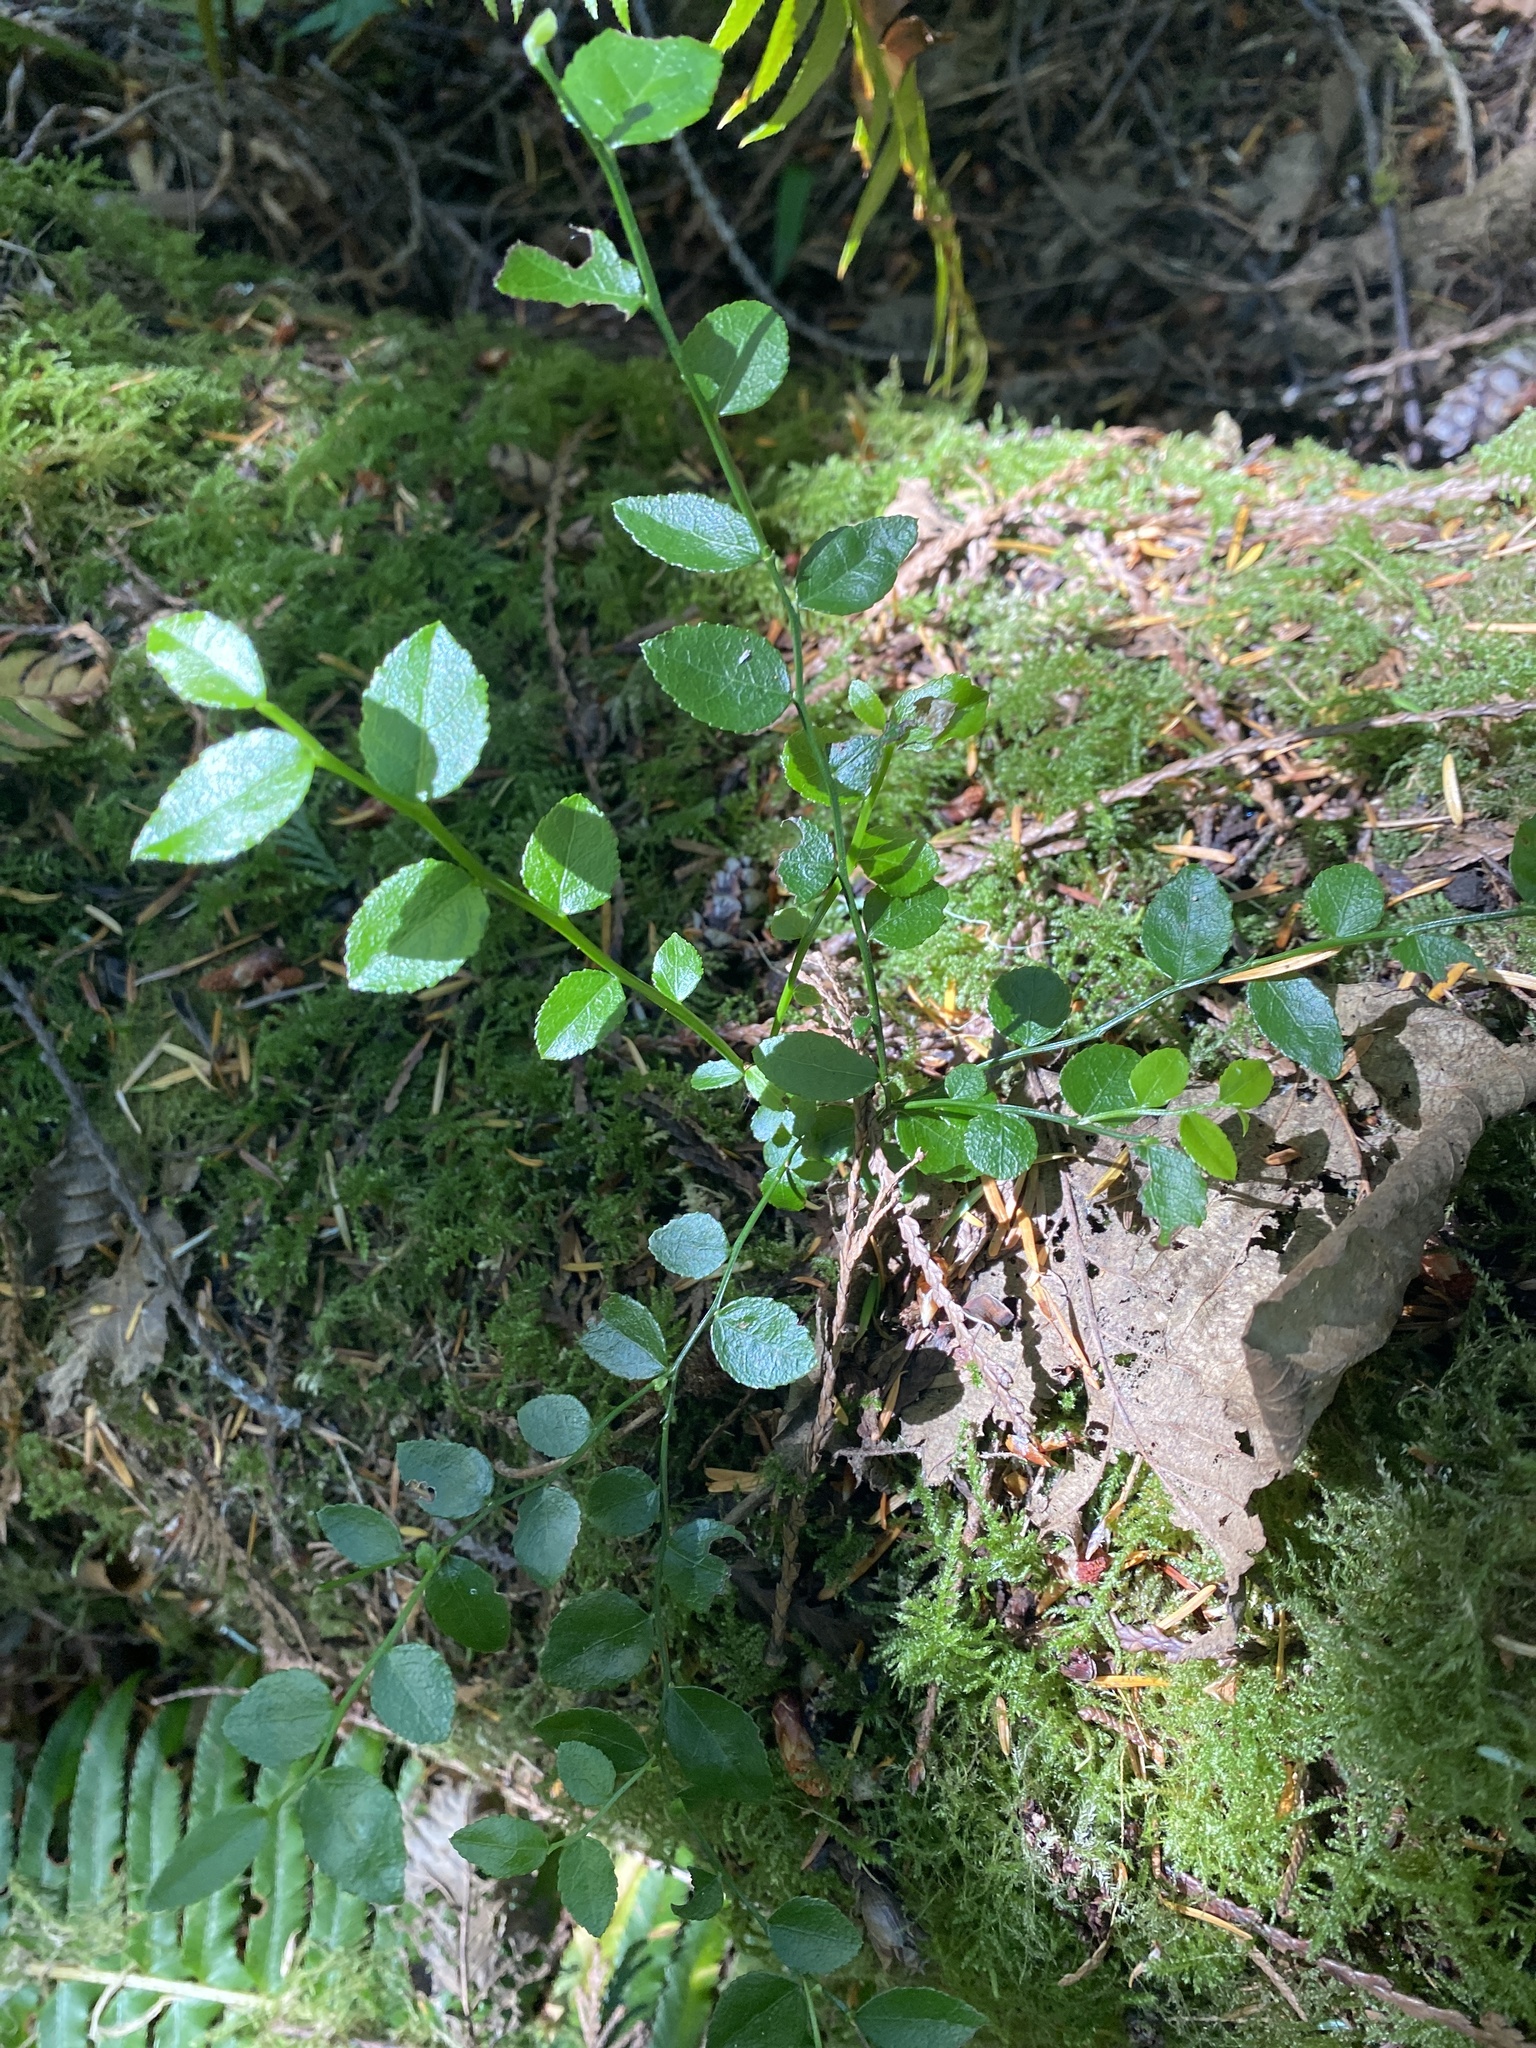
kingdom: Plantae
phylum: Tracheophyta
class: Magnoliopsida
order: Ericales
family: Ericaceae
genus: Vaccinium
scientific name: Vaccinium parvifolium
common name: Red-huckleberry
